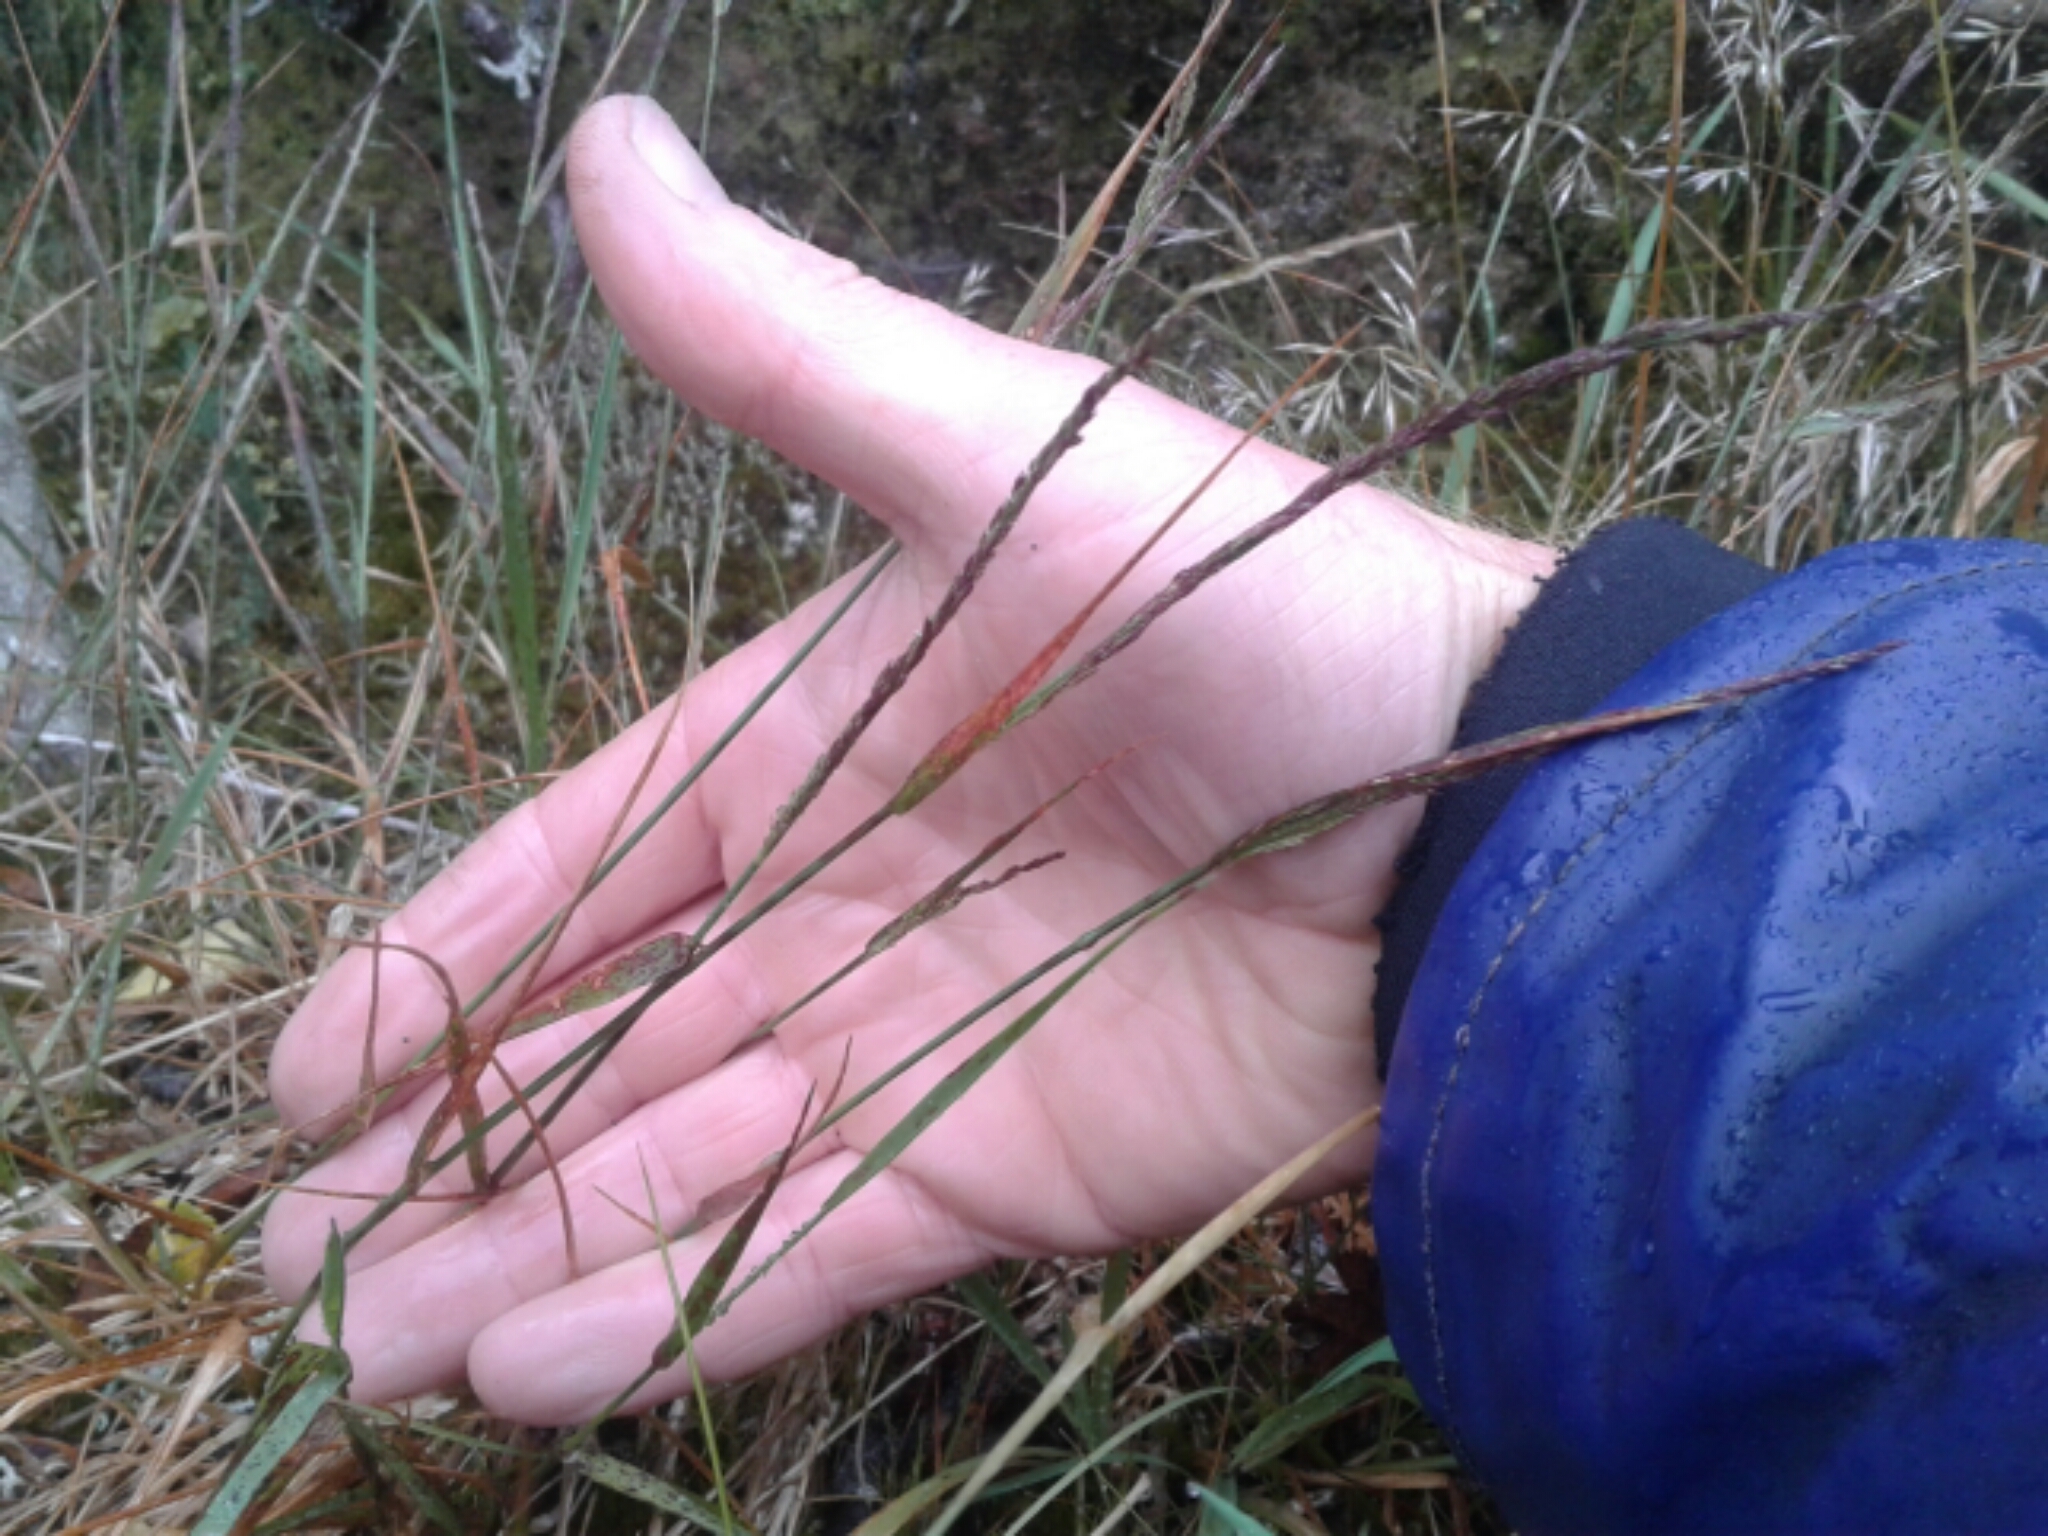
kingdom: Plantae
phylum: Tracheophyta
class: Liliopsida
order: Poales
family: Poaceae
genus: Agrostis
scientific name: Agrostis
